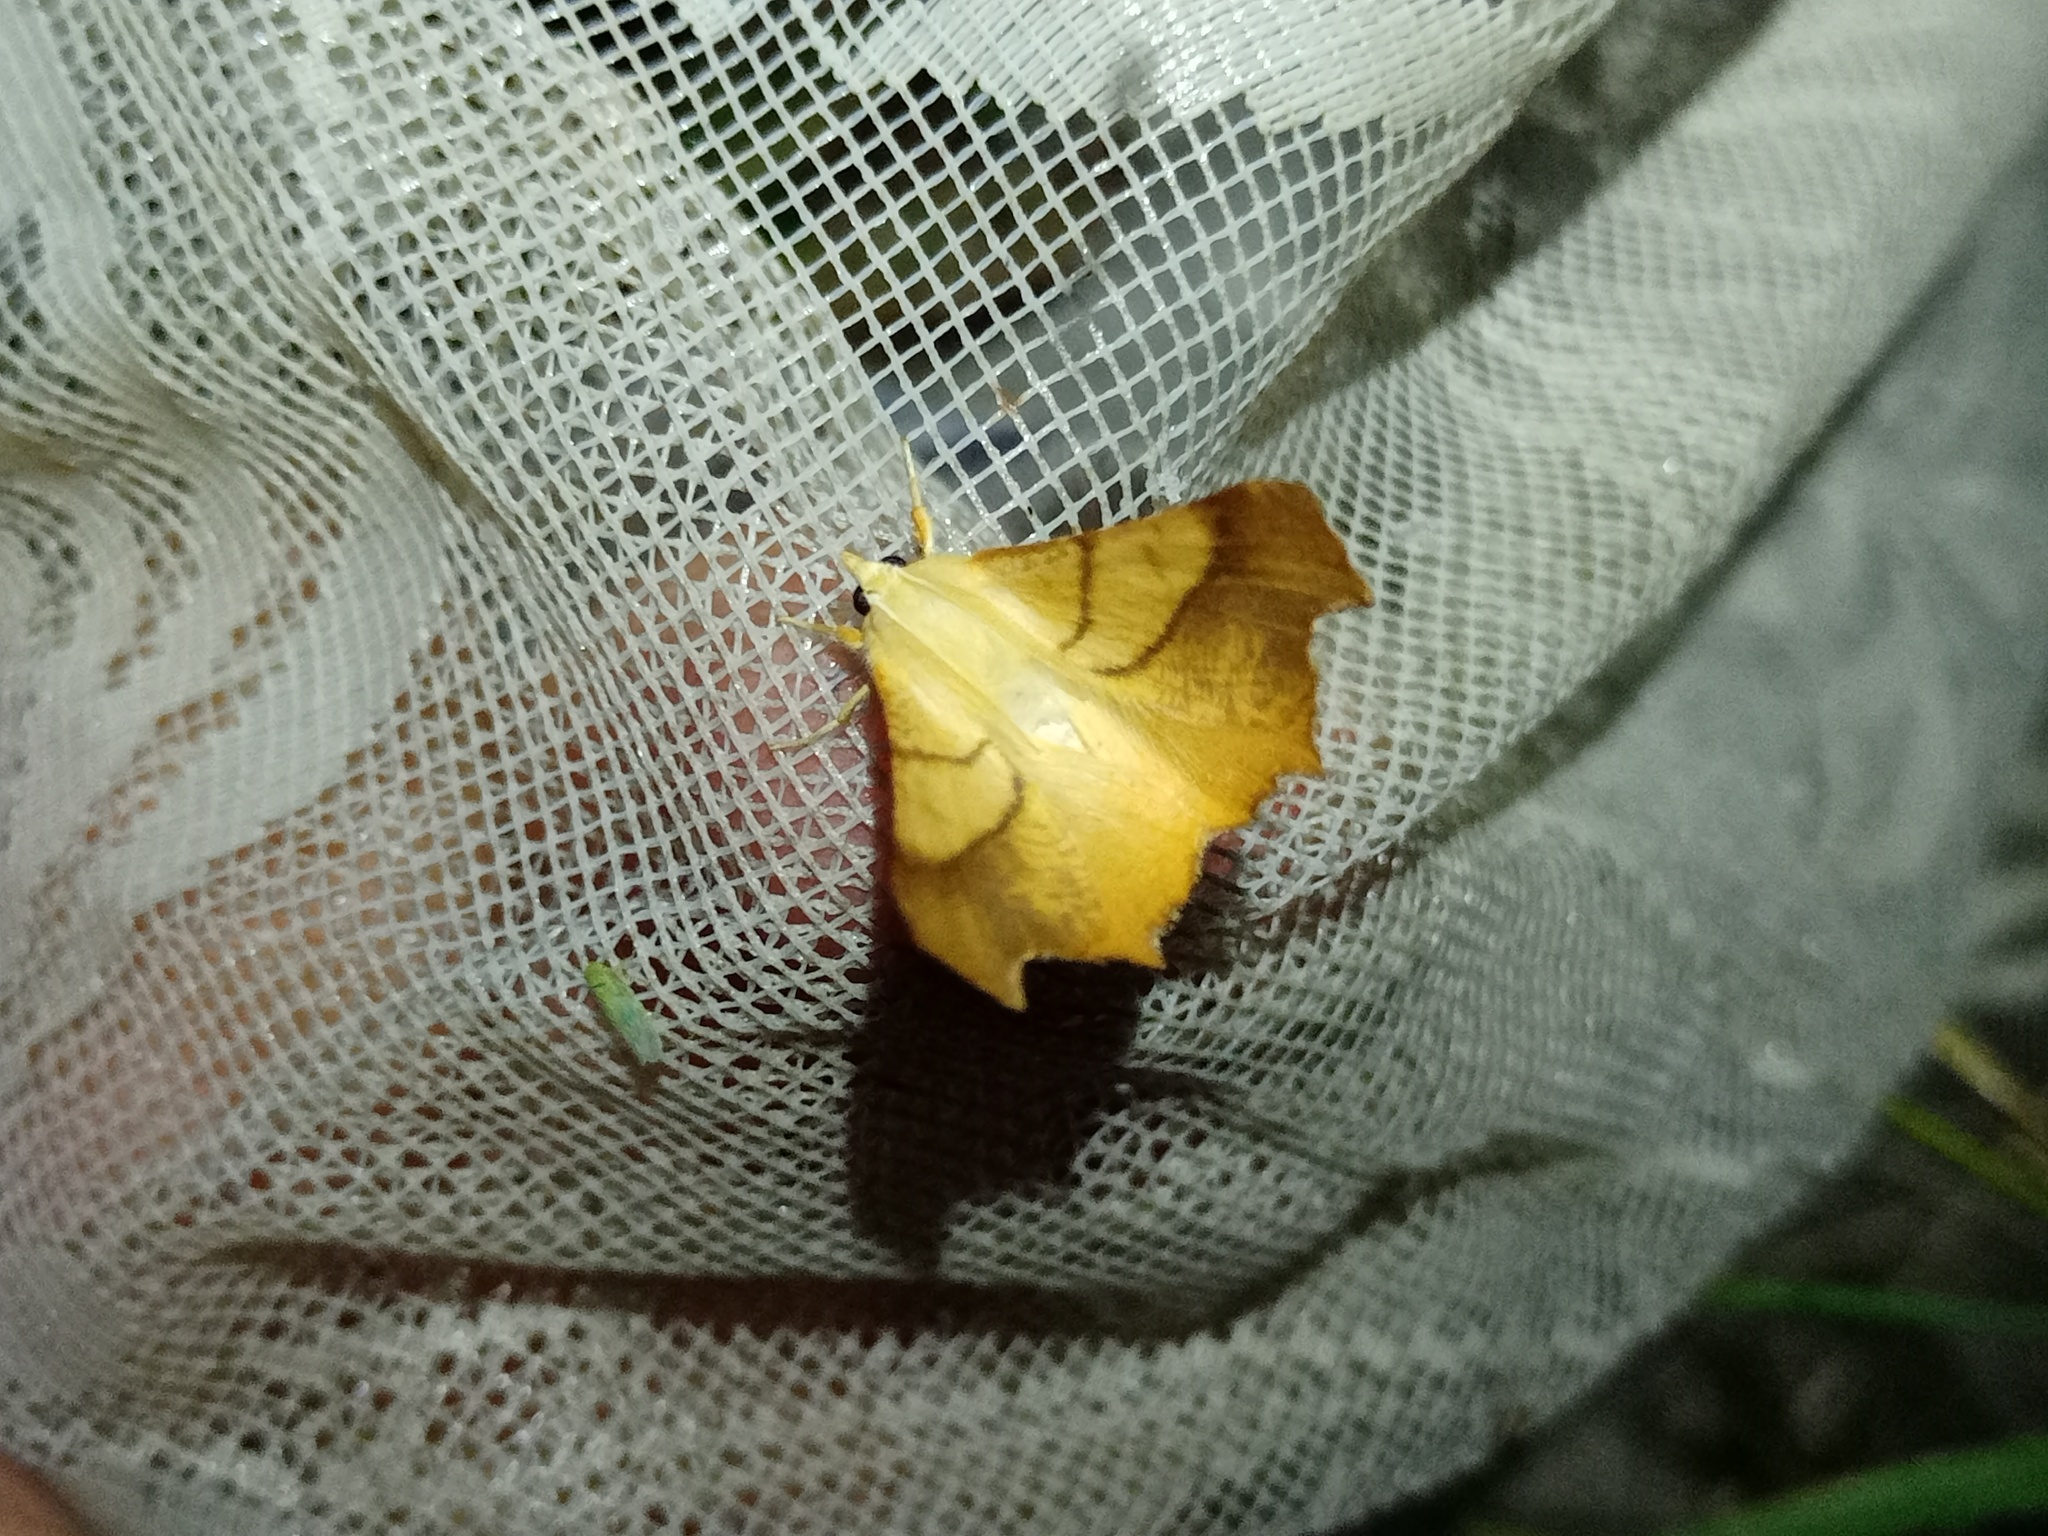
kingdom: Animalia
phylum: Arthropoda
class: Insecta
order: Lepidoptera
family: Geometridae
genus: Ennomos
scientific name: Ennomos fuscantaria
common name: Dusky thorn
